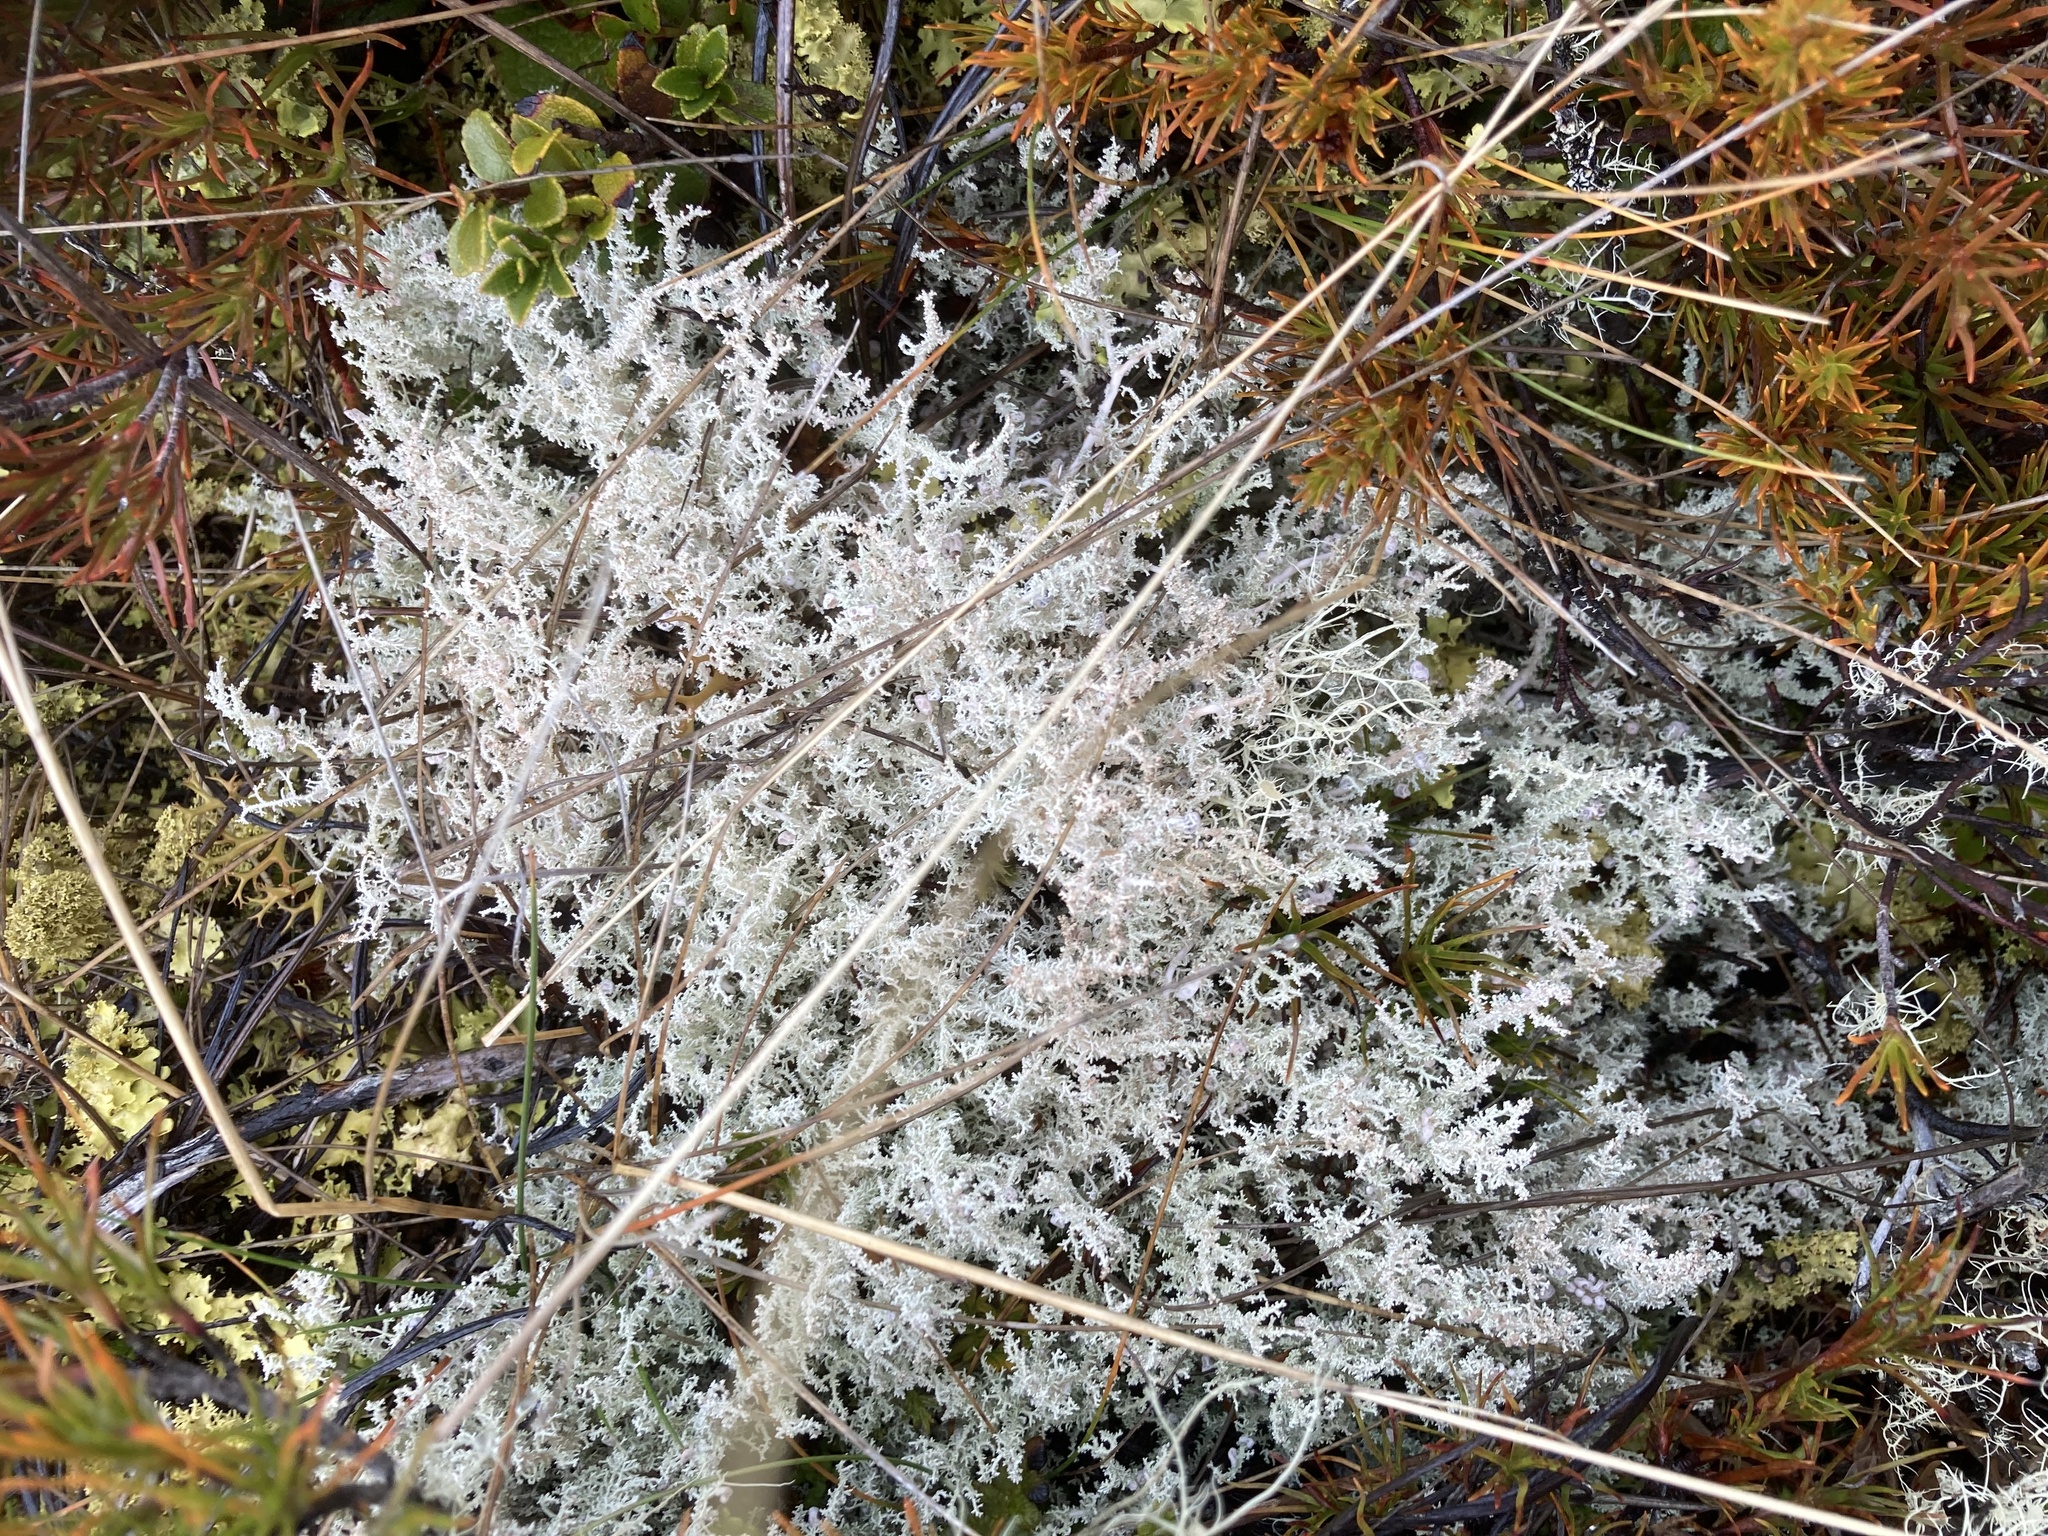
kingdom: Fungi
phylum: Ascomycota
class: Lecanoromycetes
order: Lecanorales
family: Stereocaulaceae
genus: Stereocaulon
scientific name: Stereocaulon ramulosum
